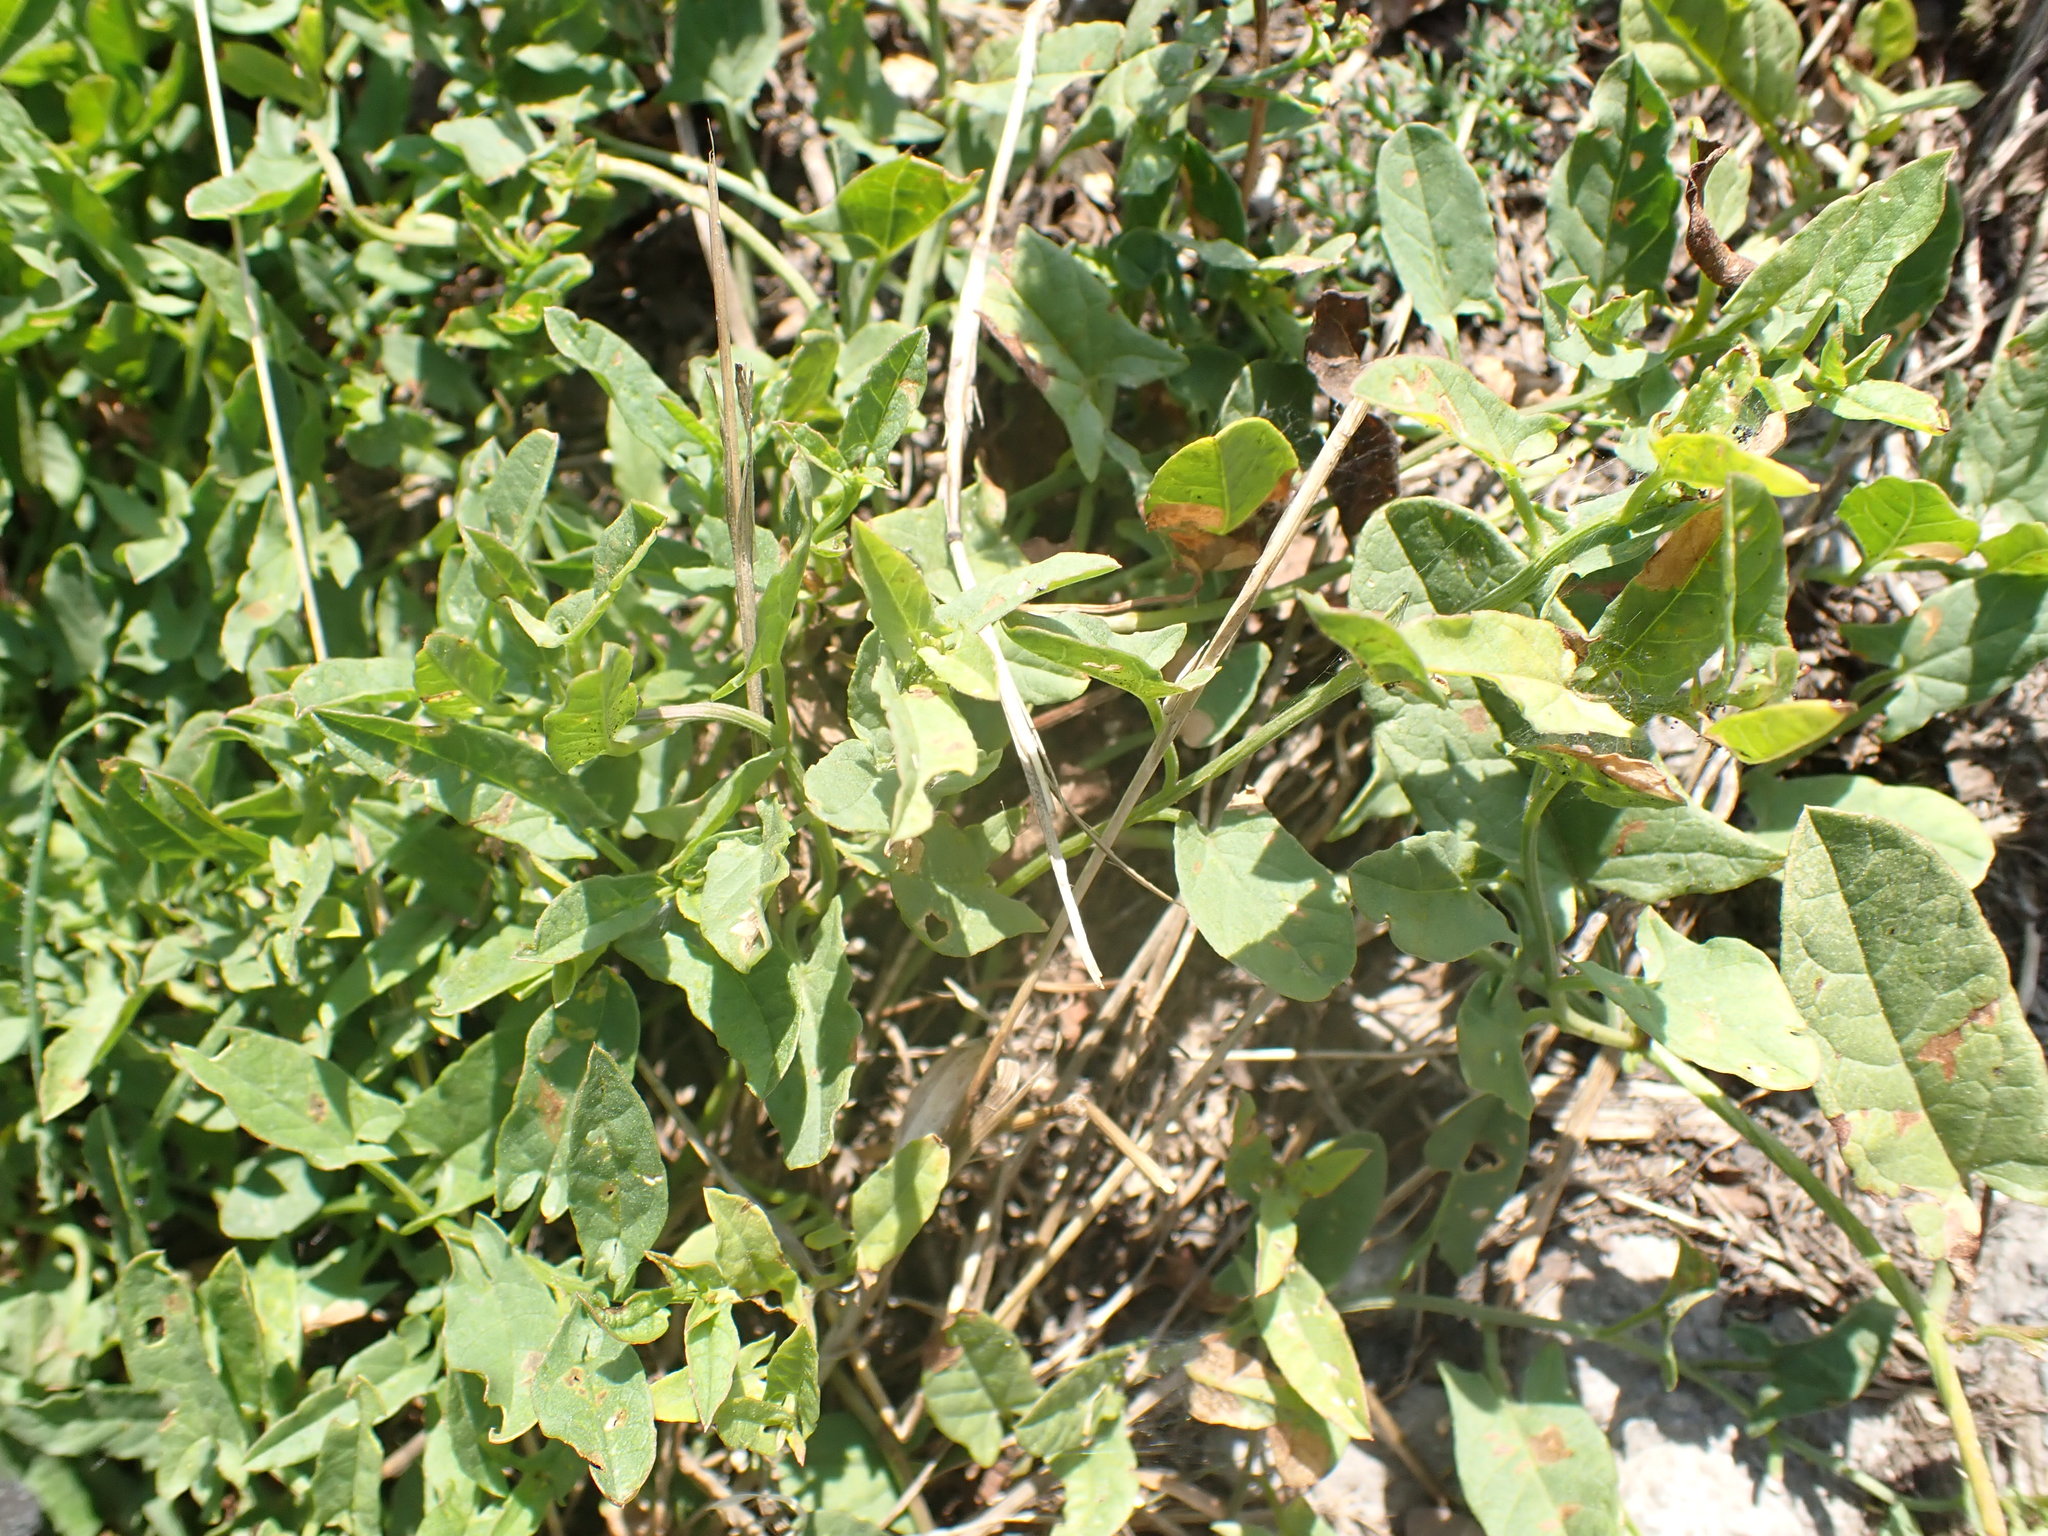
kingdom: Plantae
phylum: Tracheophyta
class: Magnoliopsida
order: Solanales
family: Convolvulaceae
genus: Convolvulus
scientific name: Convolvulus arvensis
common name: Field bindweed
